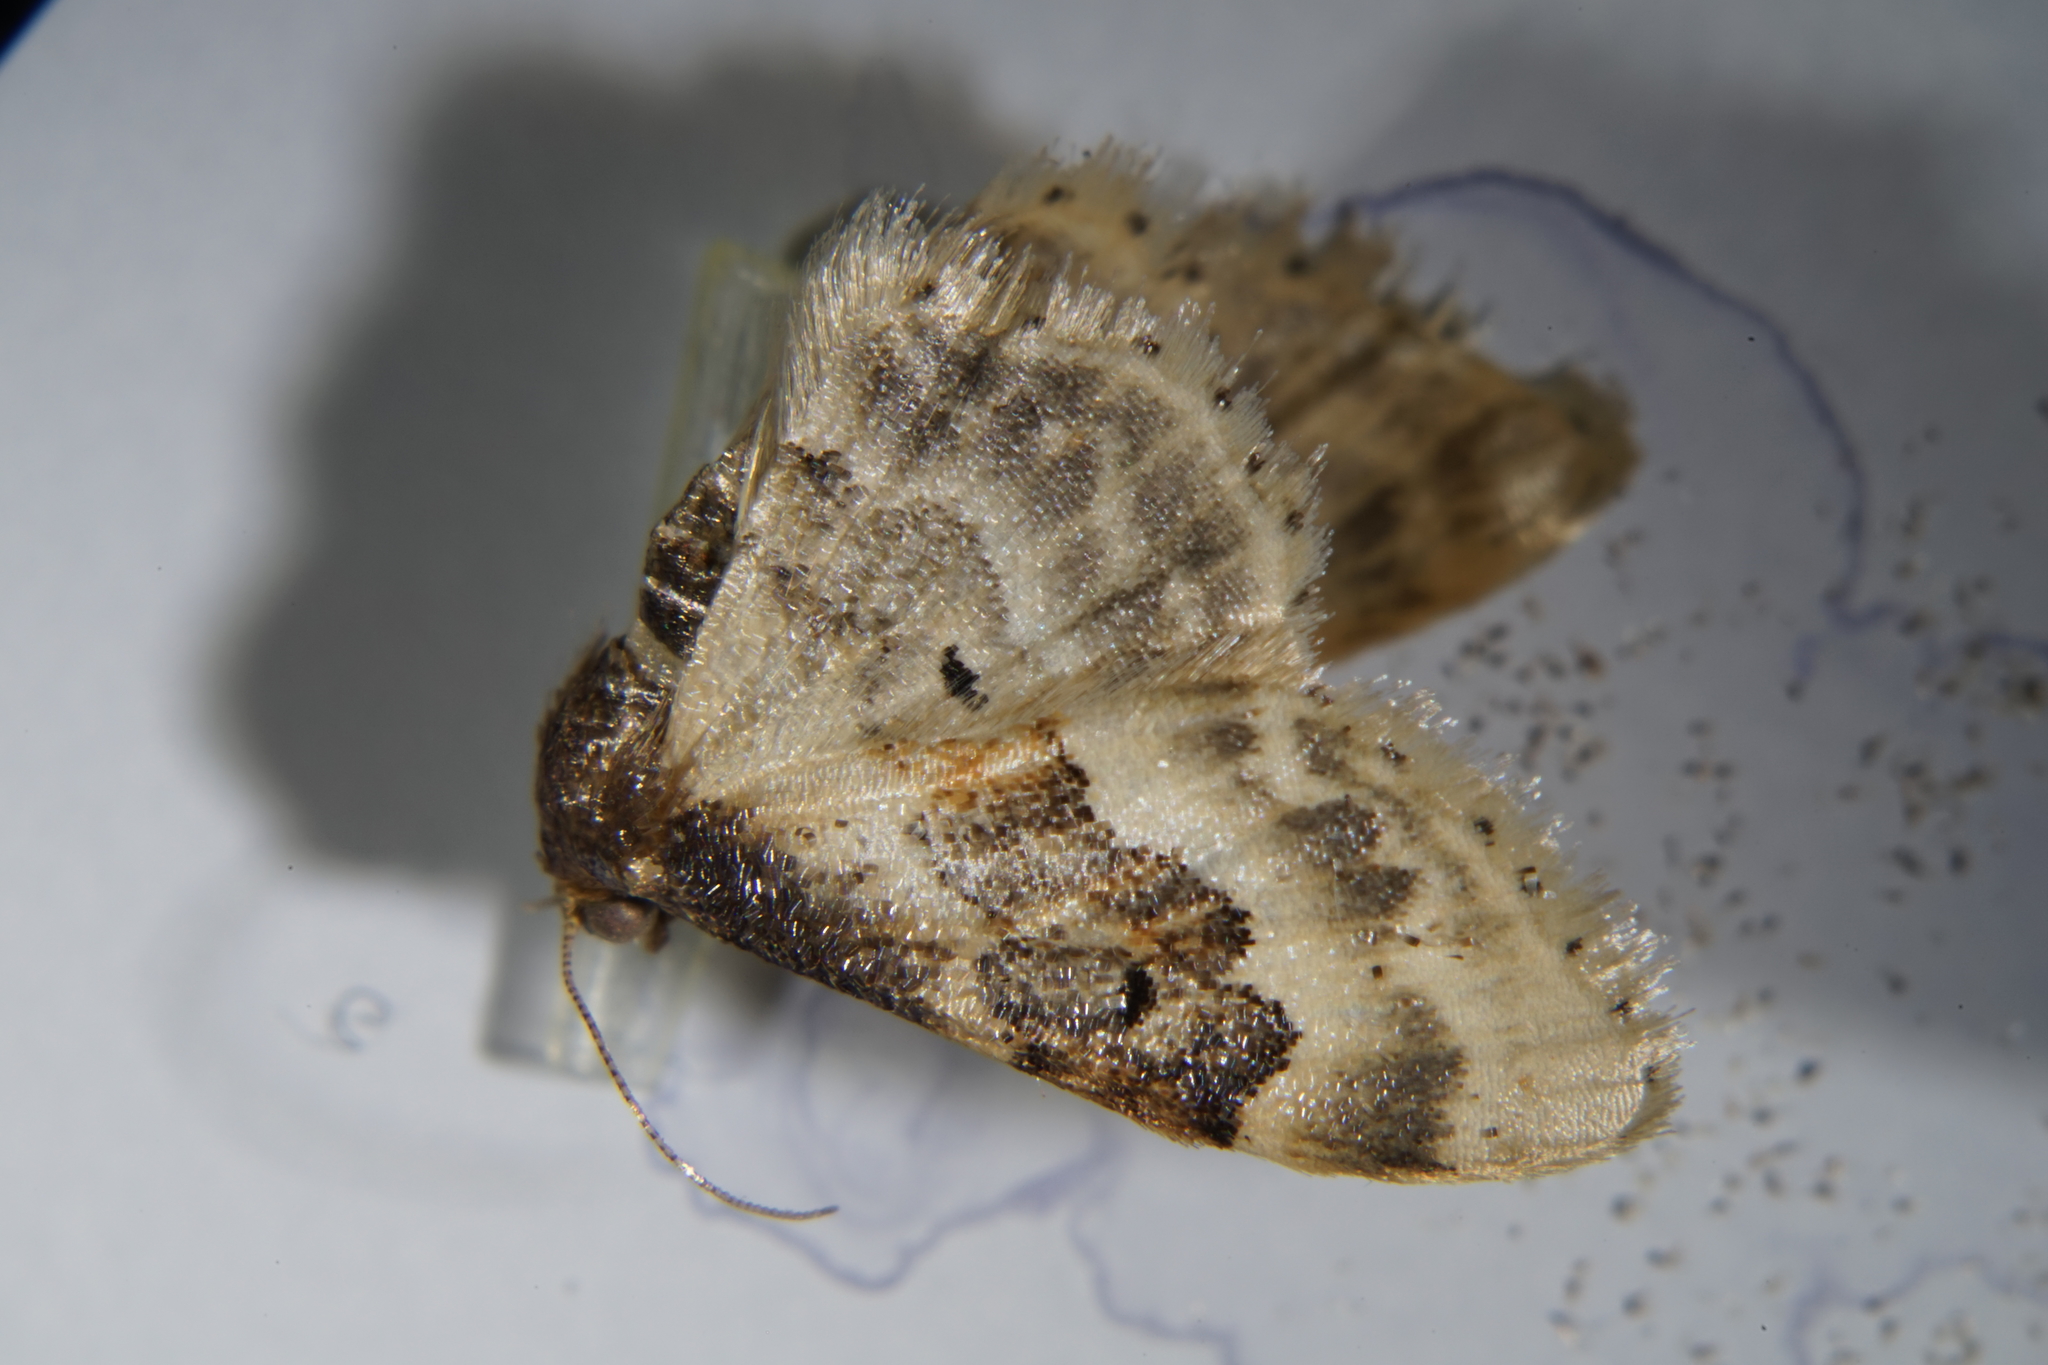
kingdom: Animalia
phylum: Arthropoda
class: Insecta
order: Lepidoptera
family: Geometridae
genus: Idaea
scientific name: Idaea rusticata
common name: Least carpet
